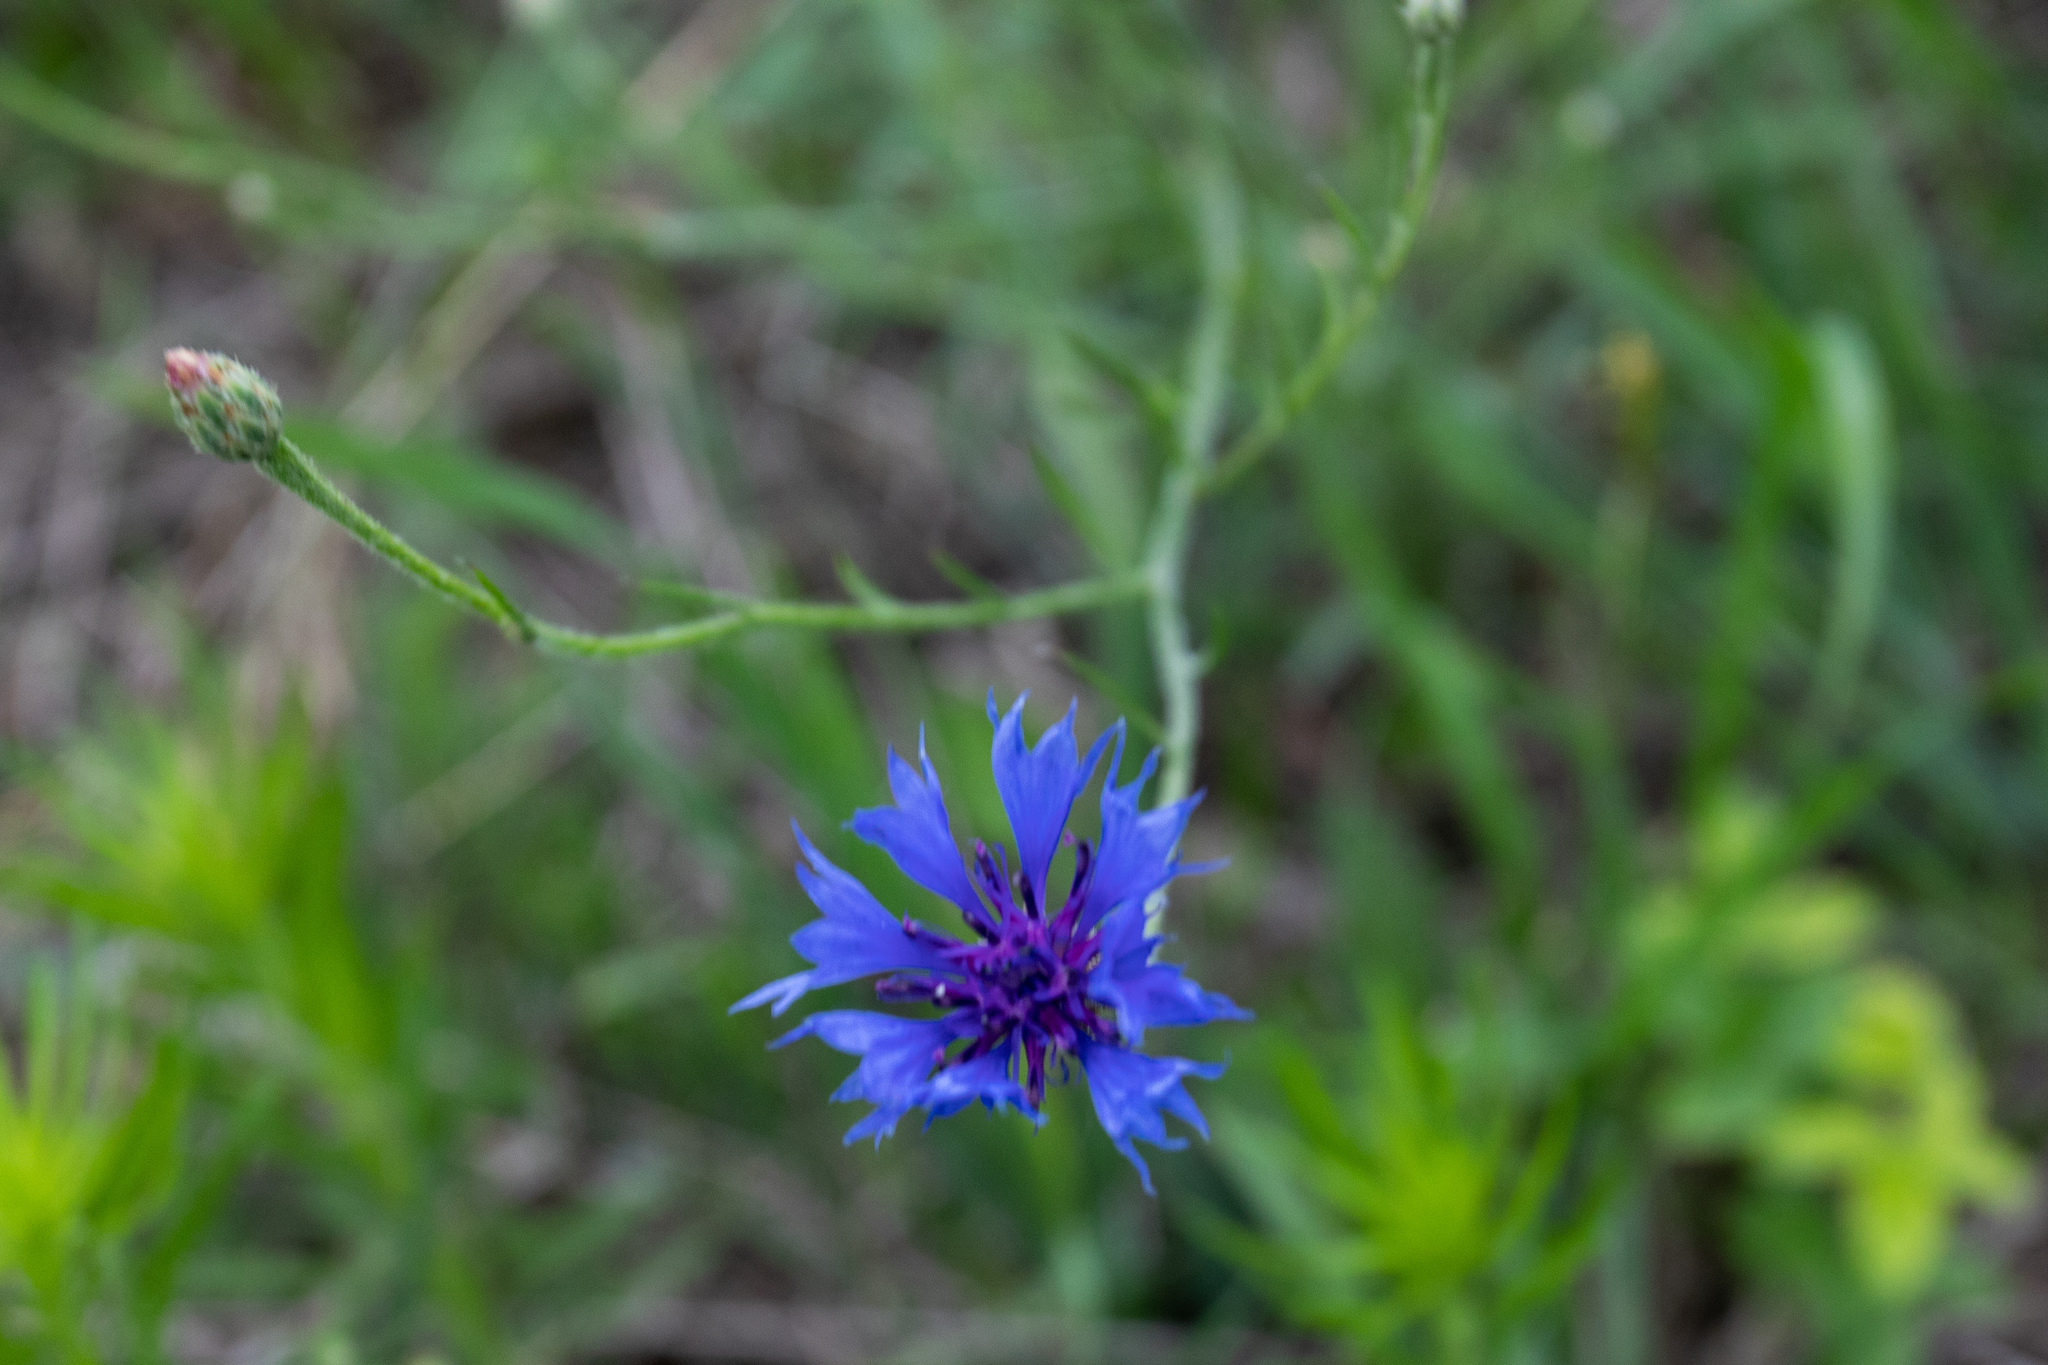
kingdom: Plantae
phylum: Tracheophyta
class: Magnoliopsida
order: Asterales
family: Asteraceae
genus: Centaurea
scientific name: Centaurea cyanus
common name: Cornflower
